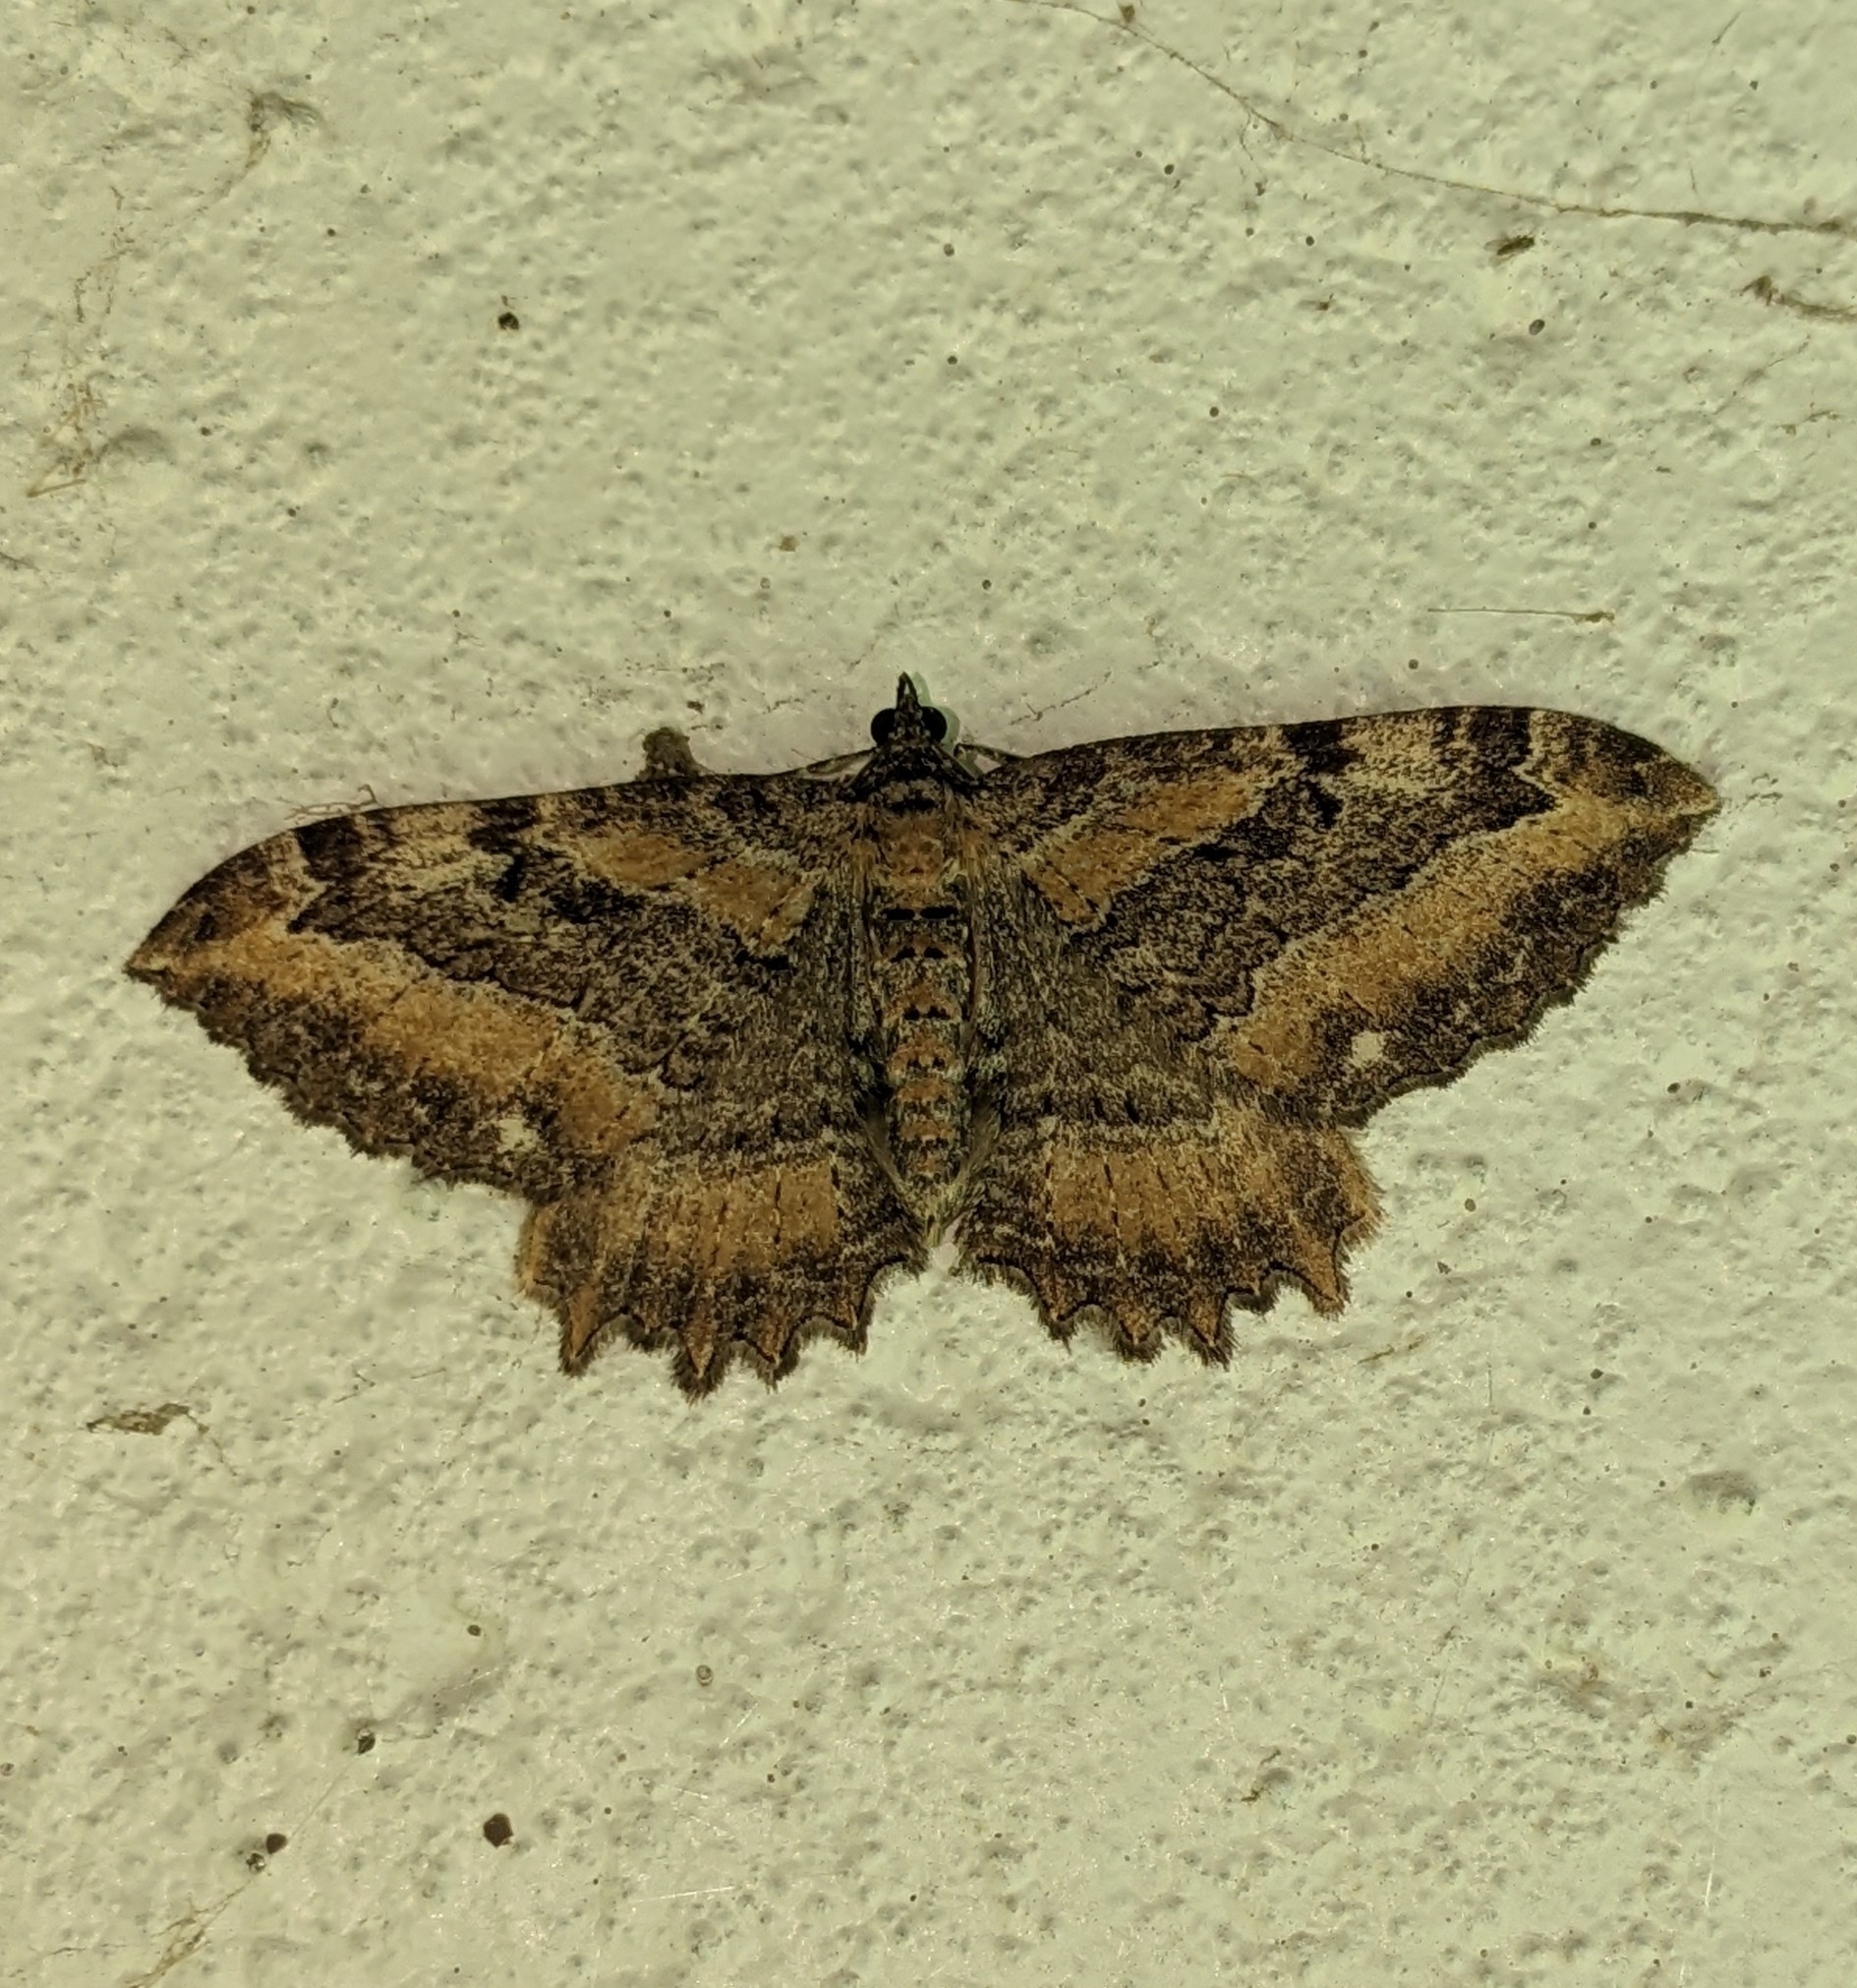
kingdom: Animalia
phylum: Arthropoda
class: Insecta
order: Lepidoptera
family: Geometridae
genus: Rheumaptera
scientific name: Rheumaptera
